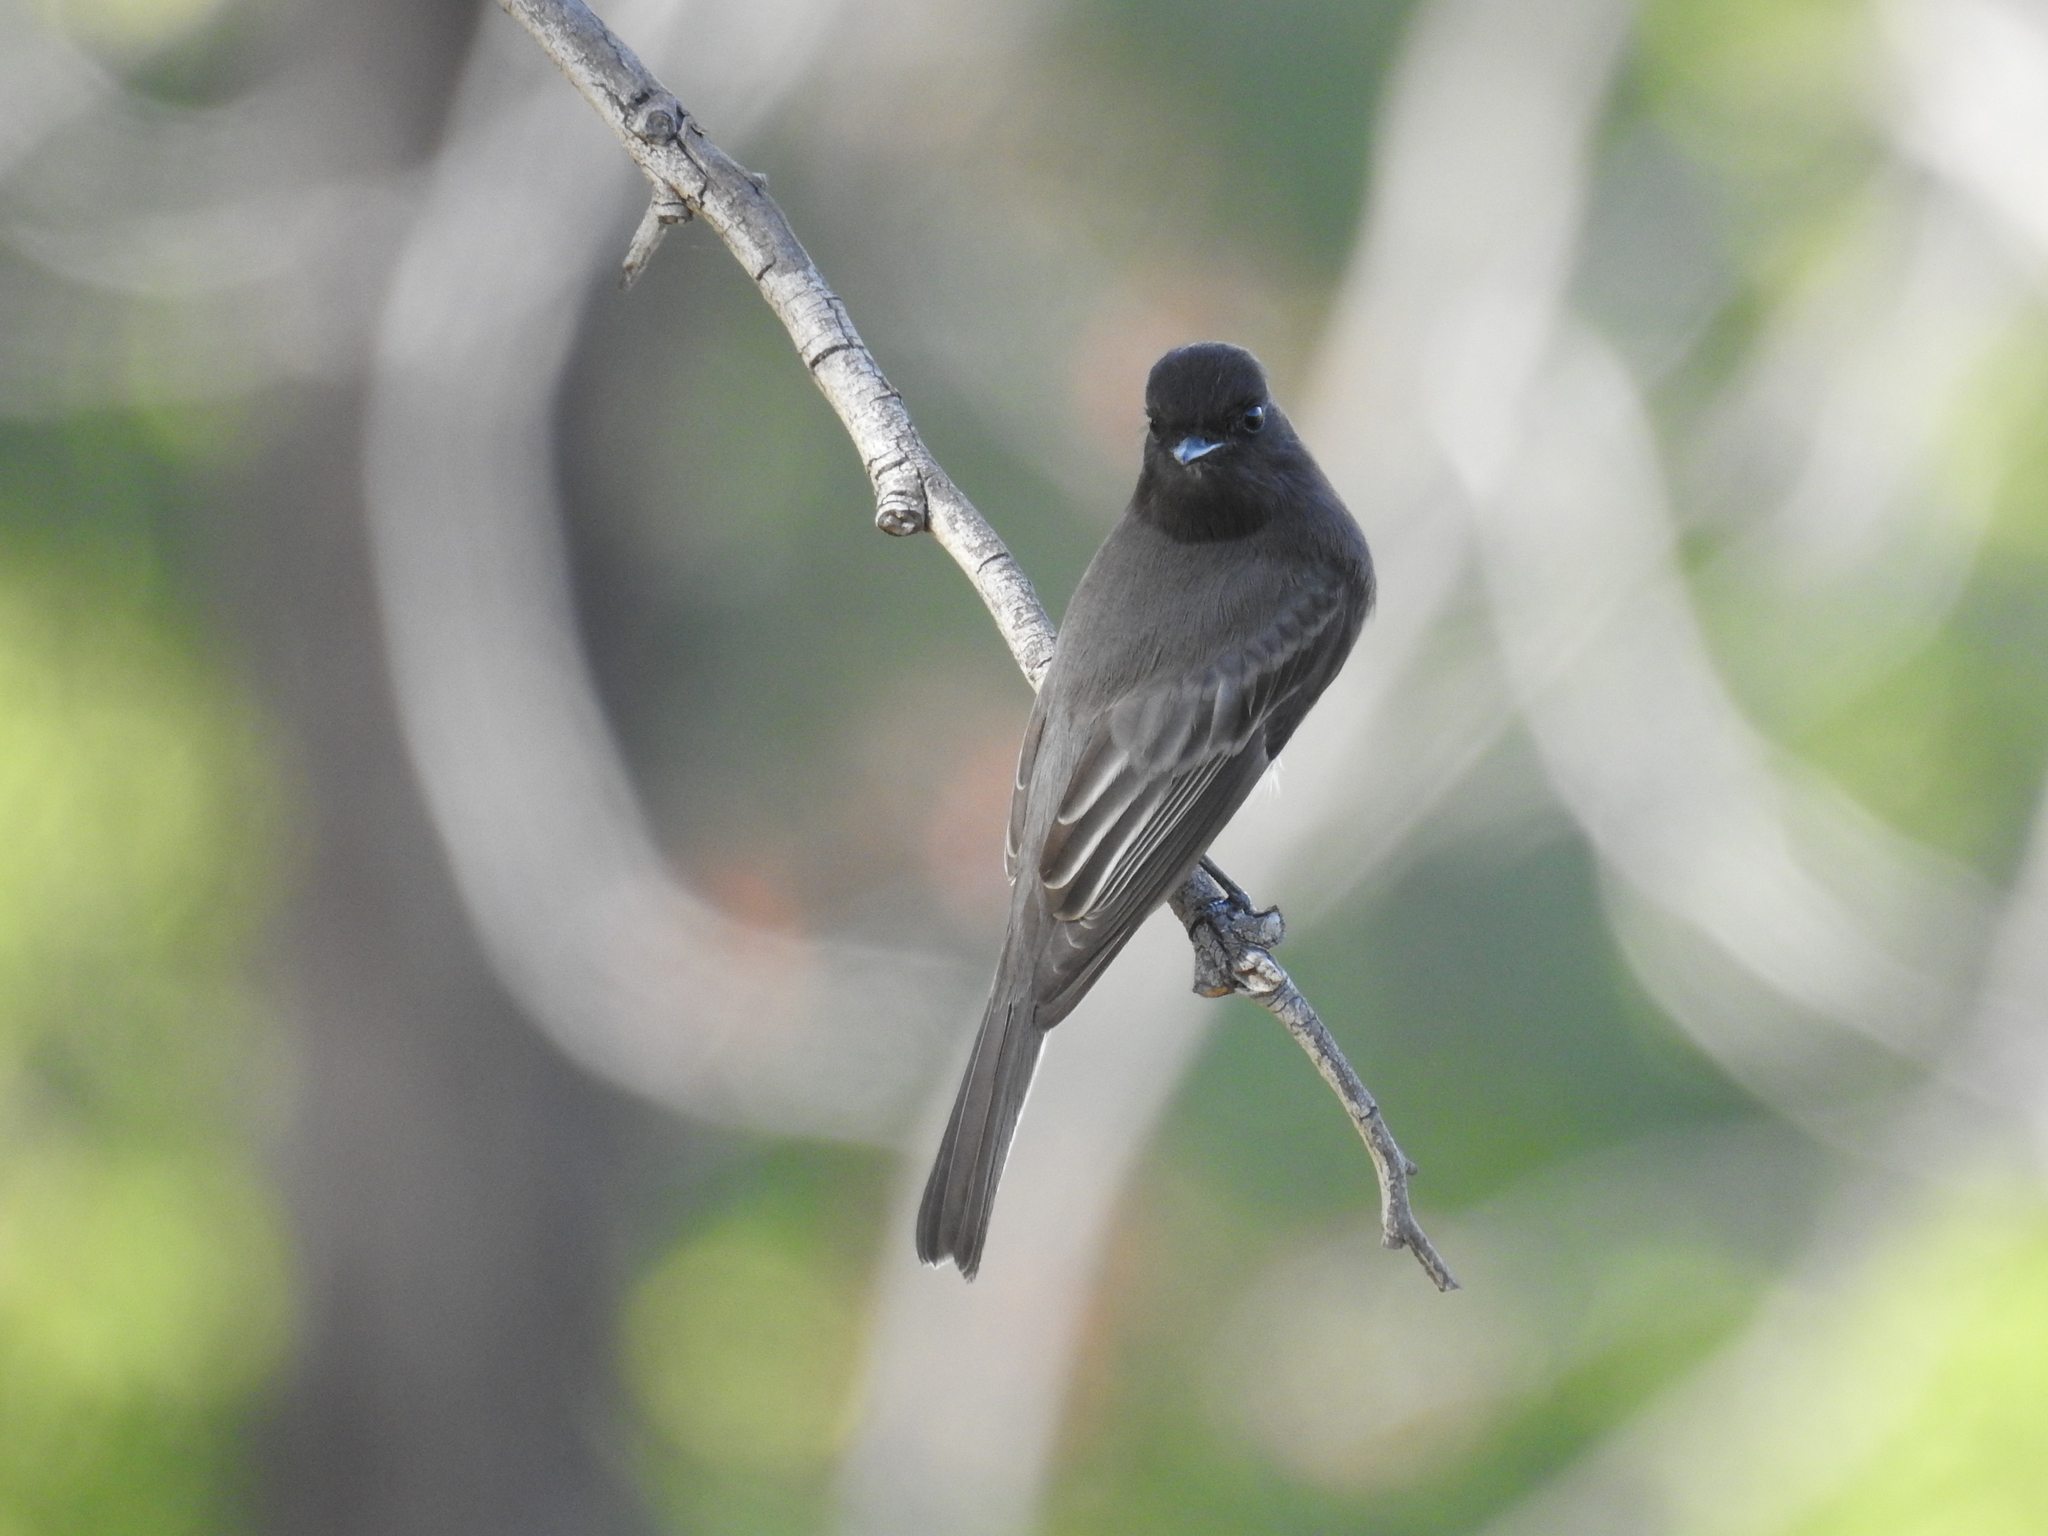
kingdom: Animalia
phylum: Chordata
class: Aves
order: Passeriformes
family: Tyrannidae
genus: Sayornis
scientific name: Sayornis nigricans
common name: Black phoebe
